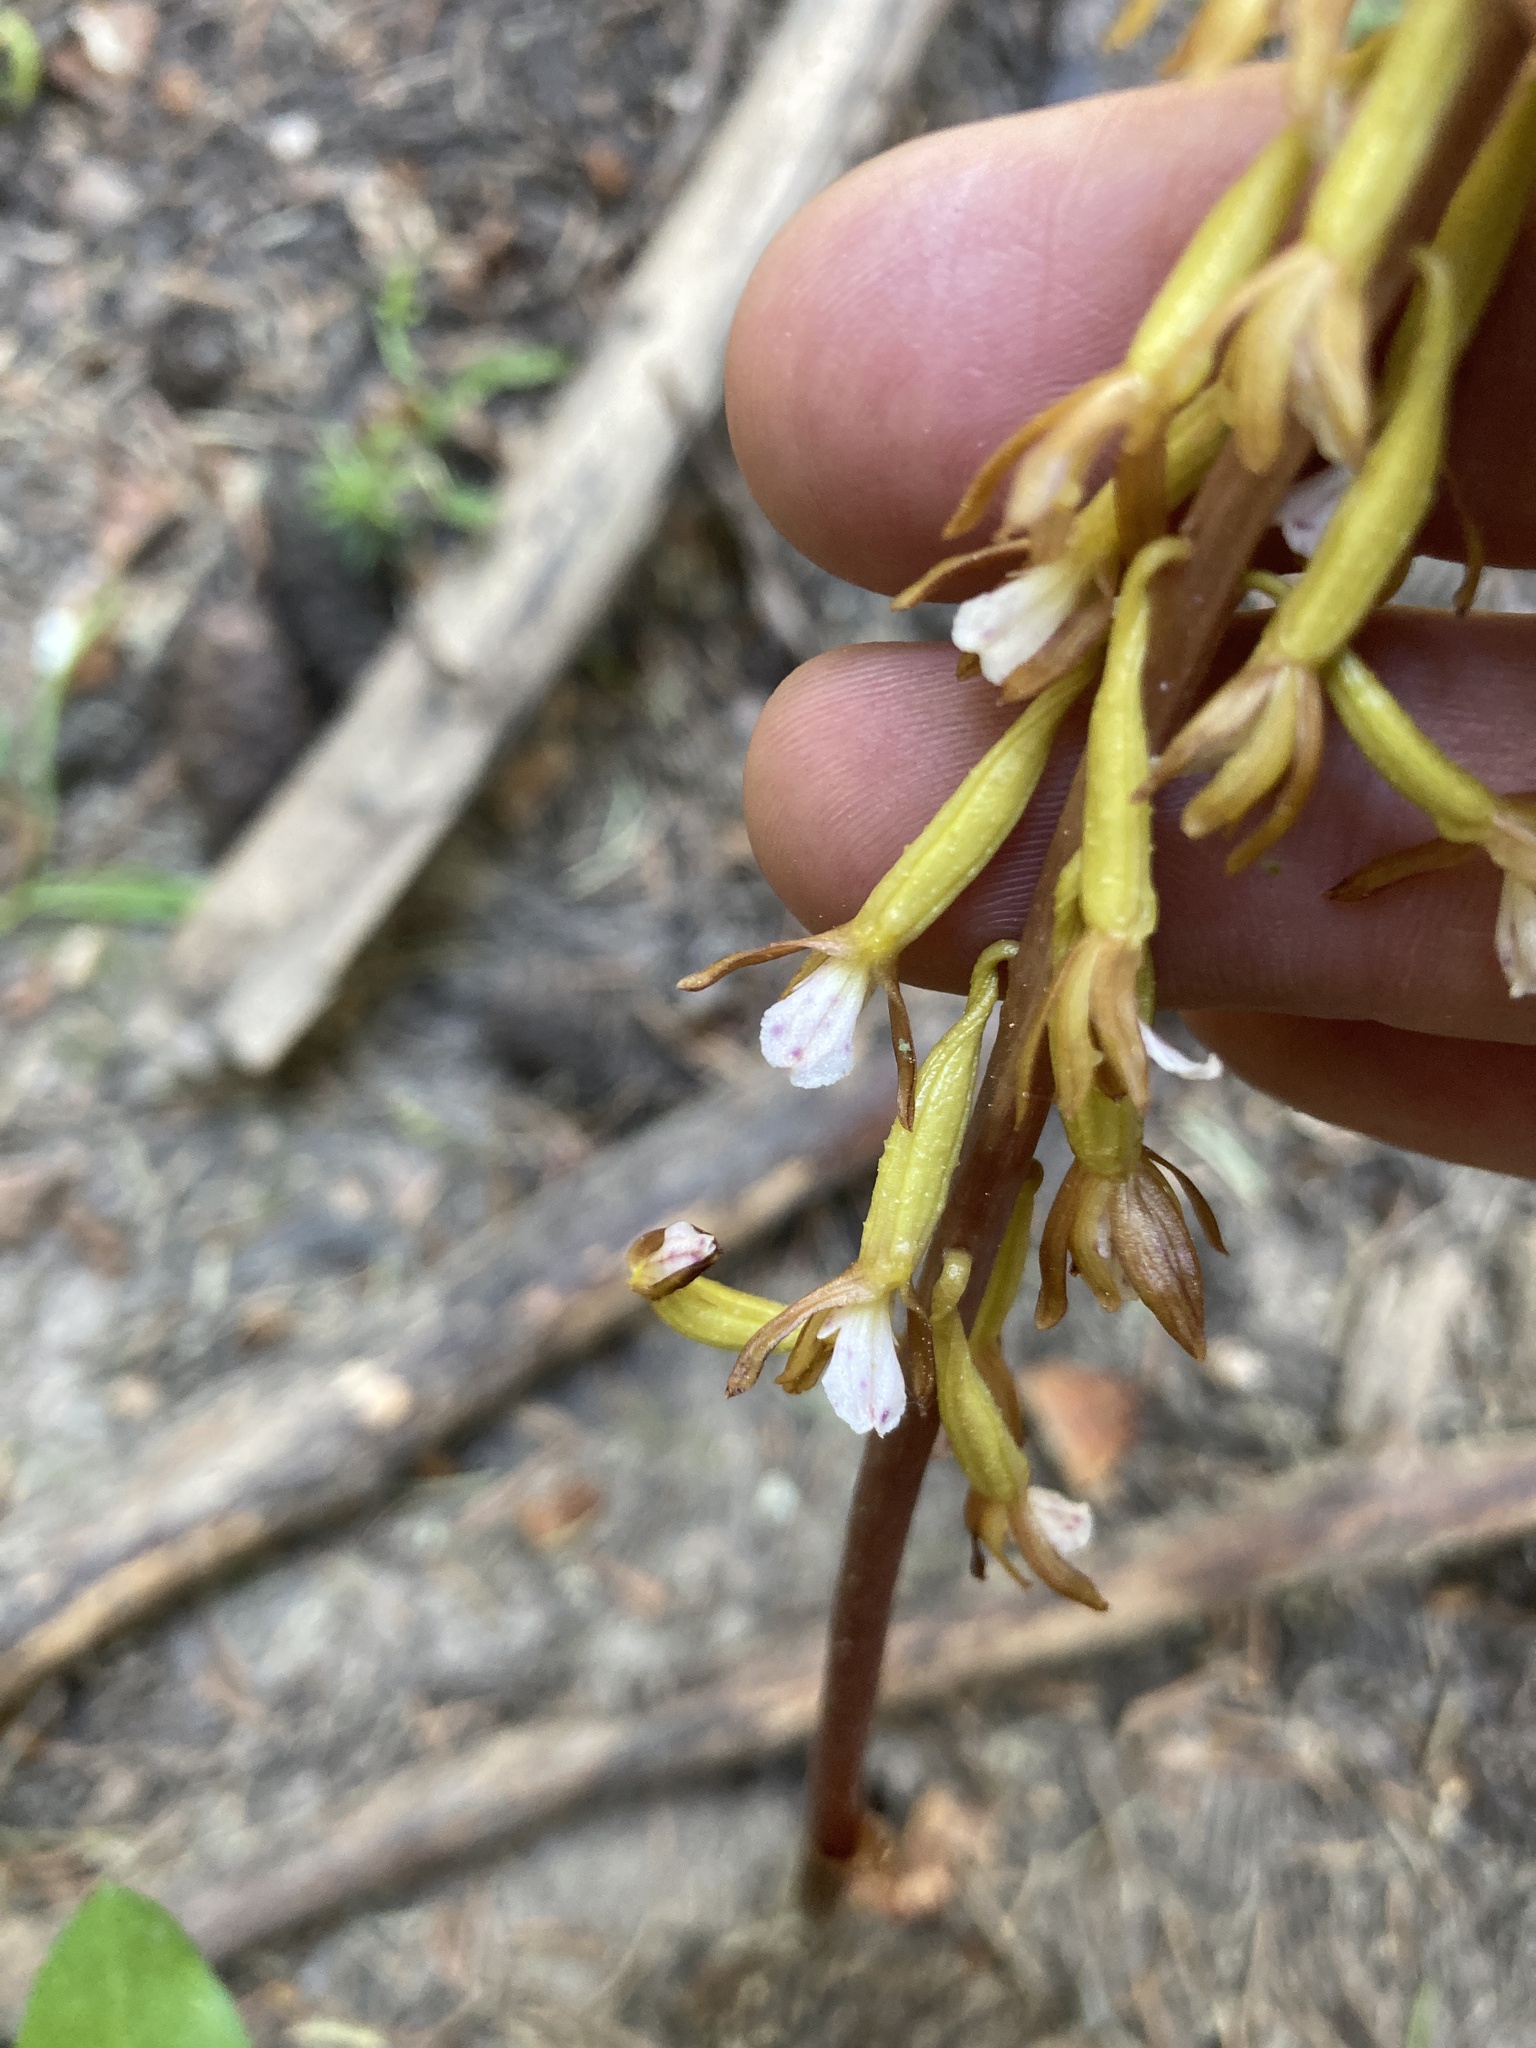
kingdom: Plantae
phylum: Tracheophyta
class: Liliopsida
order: Asparagales
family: Orchidaceae
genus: Corallorhiza
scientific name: Corallorhiza maculata
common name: Spotted coralroot
